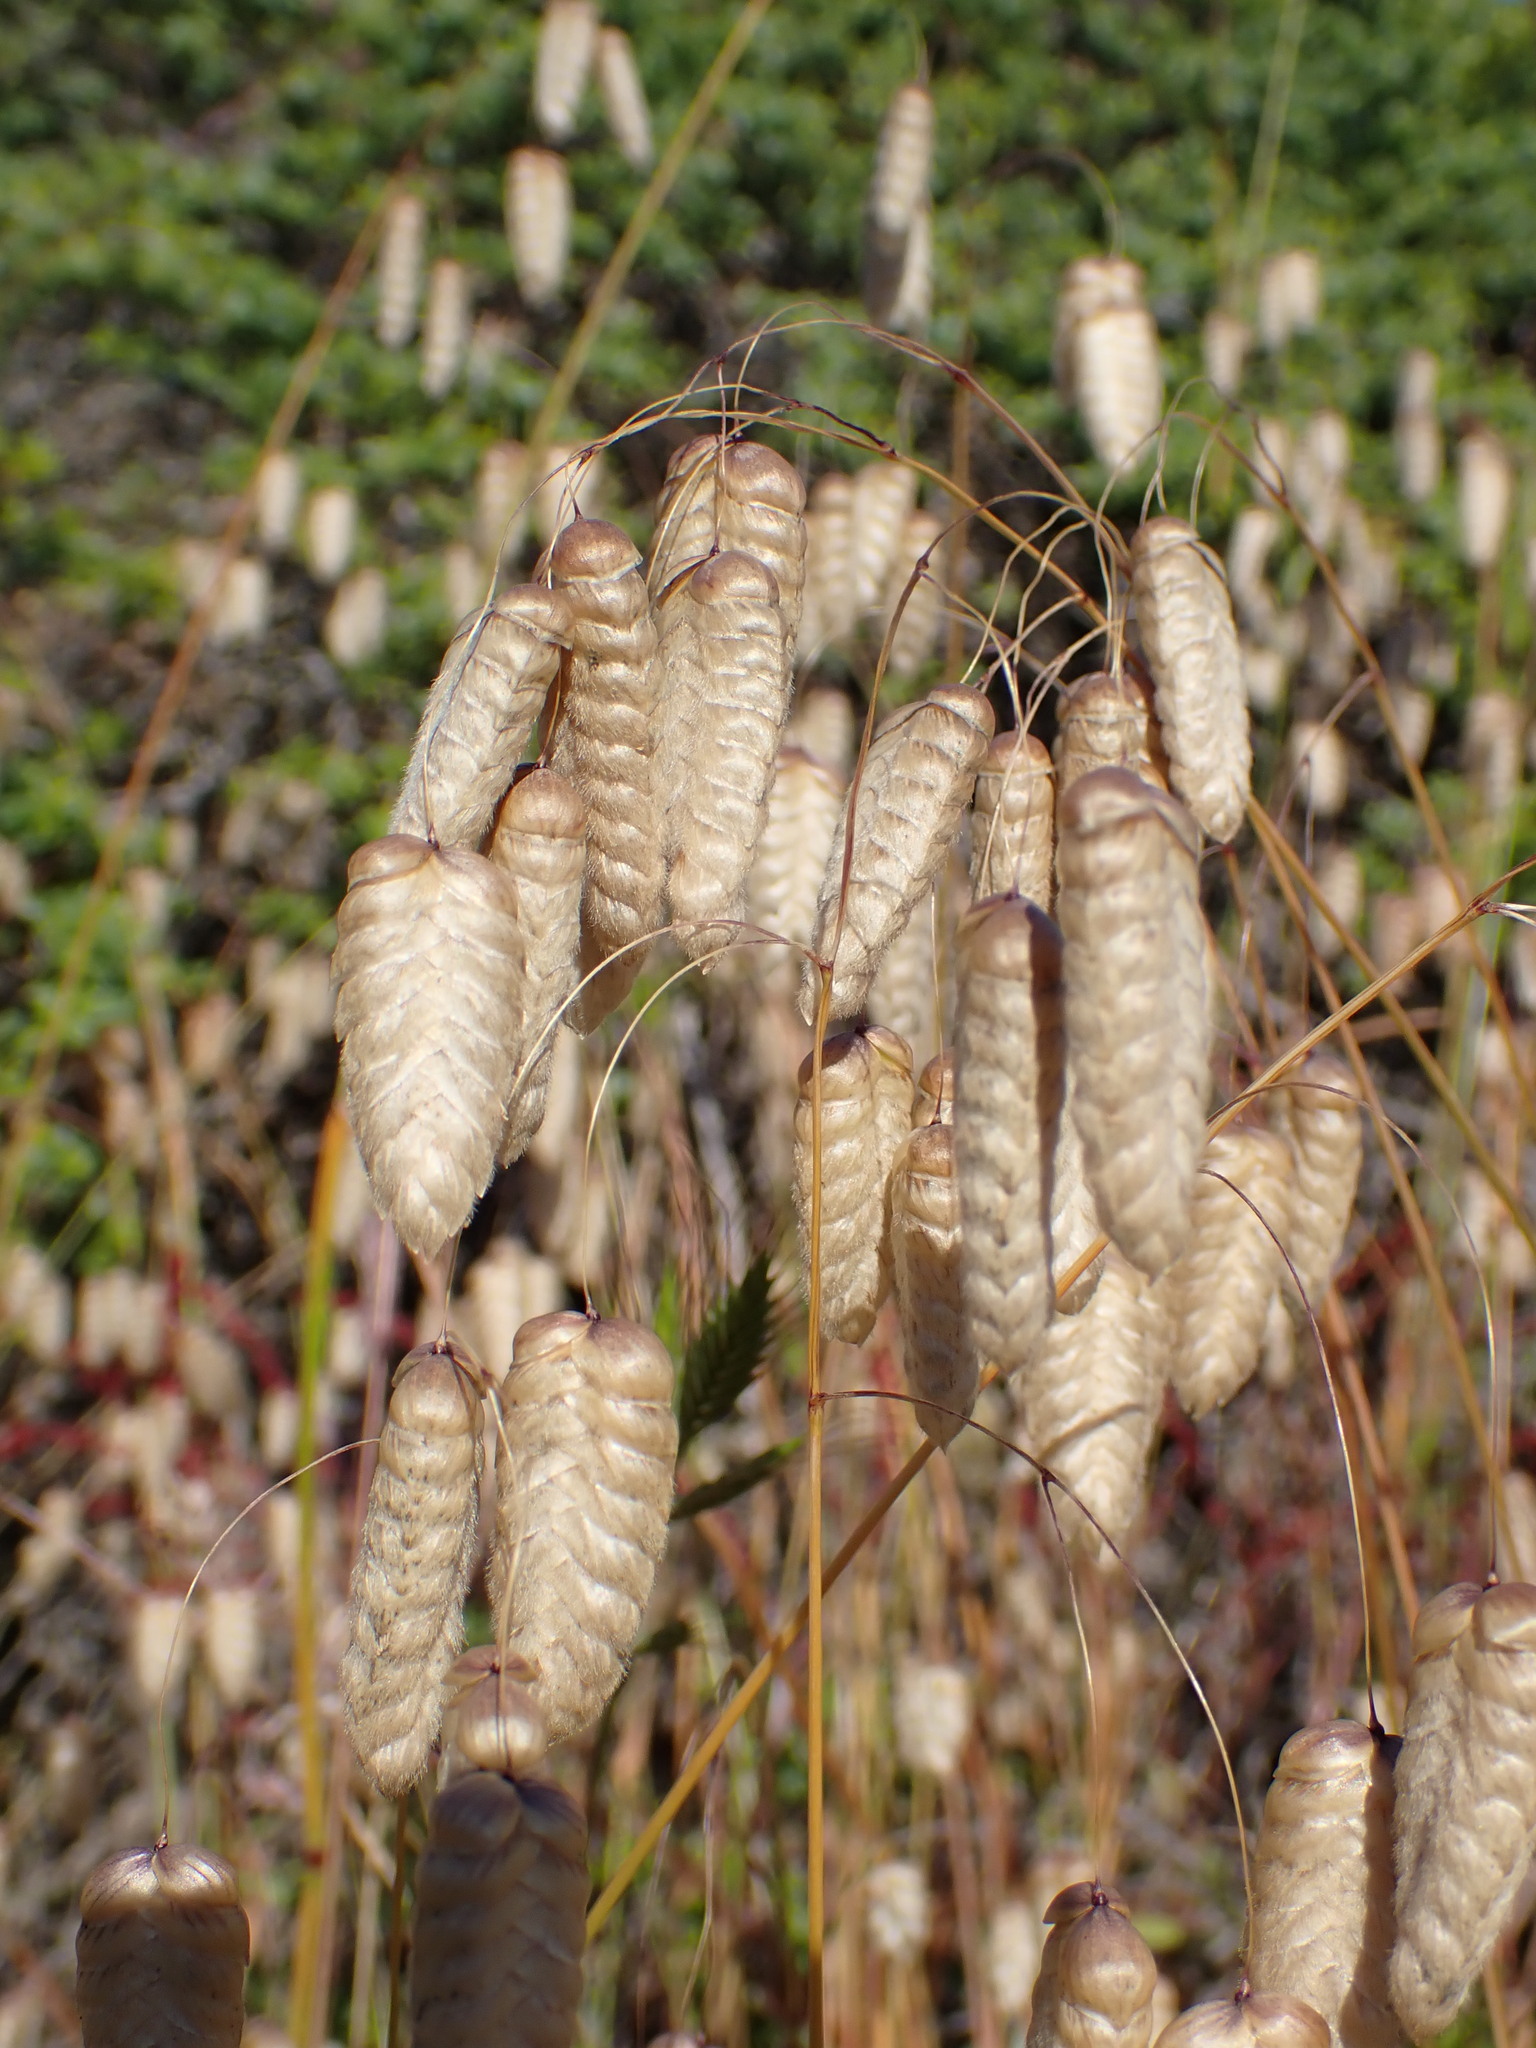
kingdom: Plantae
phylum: Tracheophyta
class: Liliopsida
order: Poales
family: Poaceae
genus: Briza
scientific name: Briza maxima
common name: Big quakinggrass
